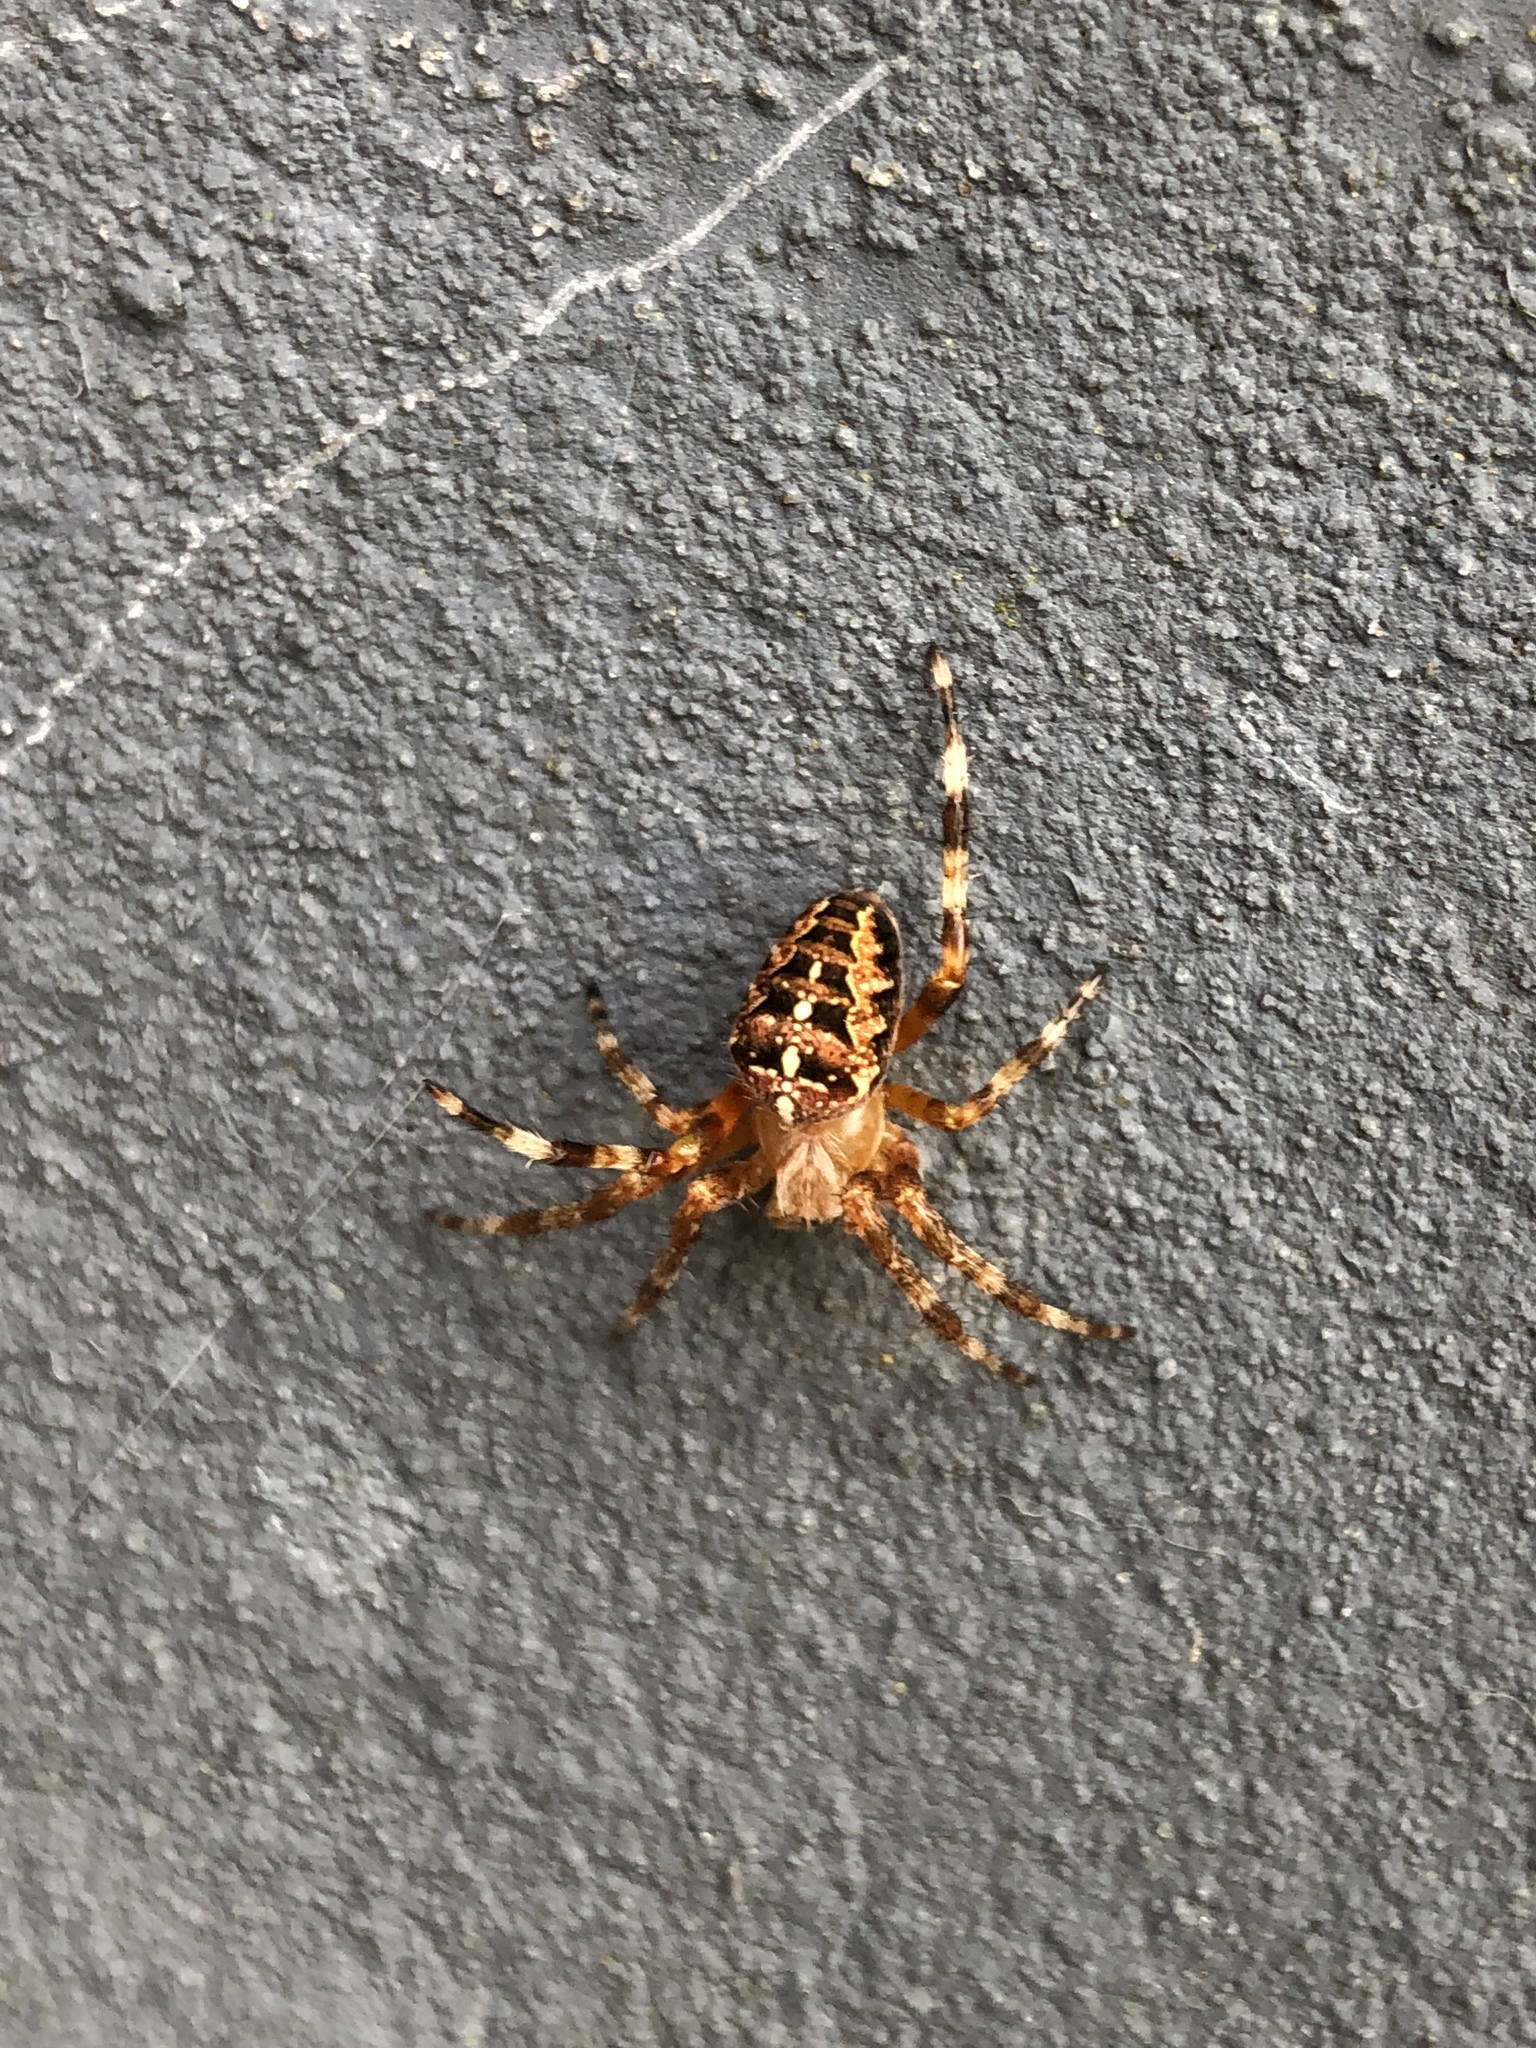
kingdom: Animalia
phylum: Arthropoda
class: Arachnida
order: Araneae
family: Araneidae
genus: Araneus
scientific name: Araneus diadematus
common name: Cross orbweaver
